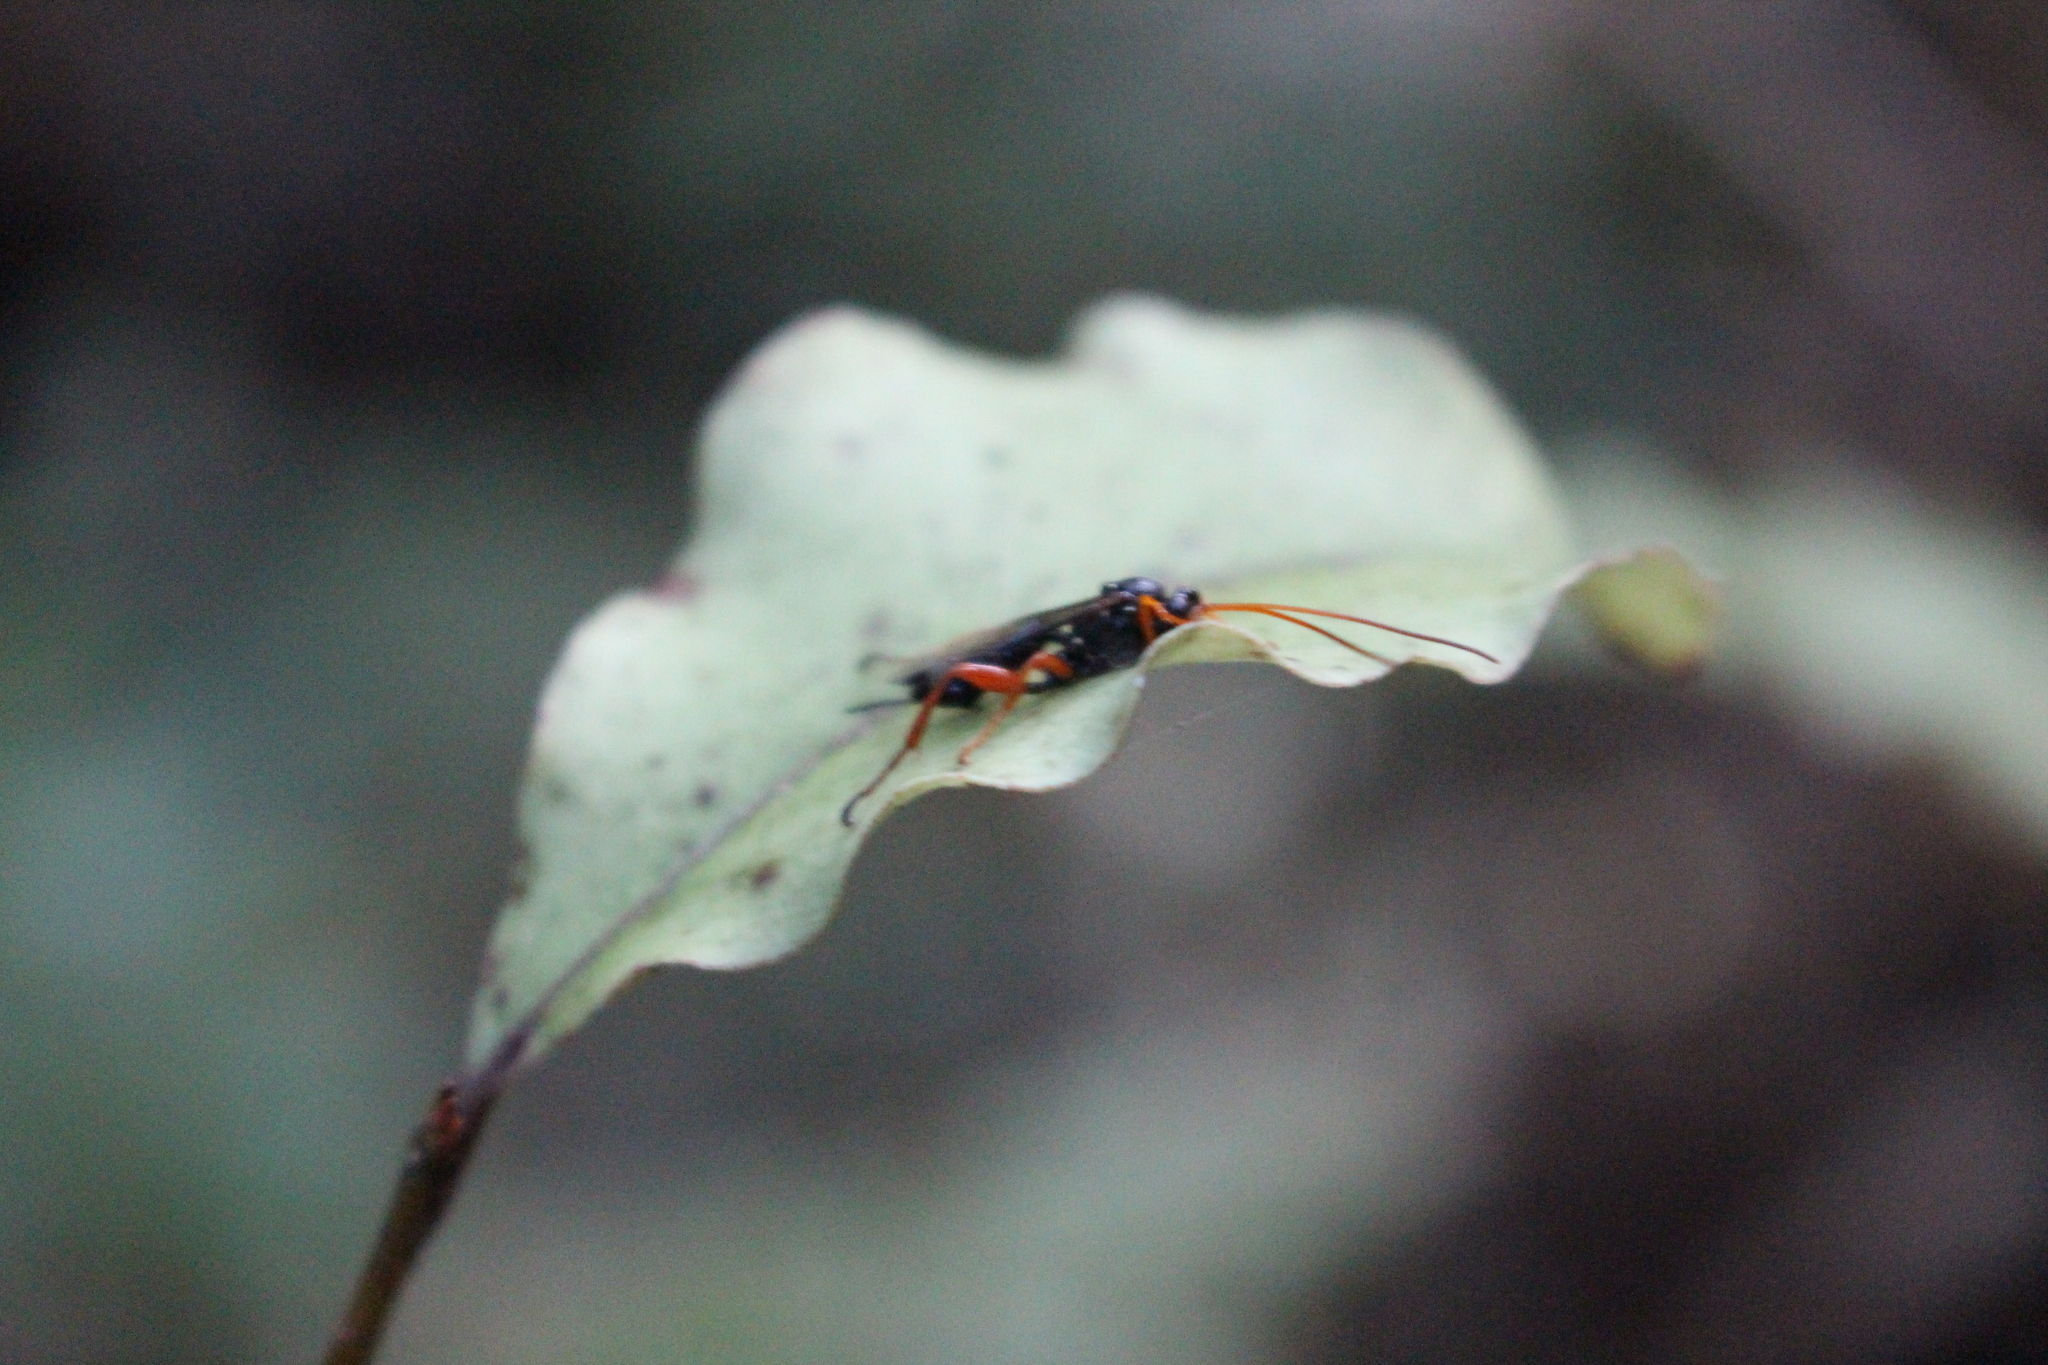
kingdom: Animalia
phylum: Arthropoda
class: Insecta
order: Hymenoptera
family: Ichneumonidae
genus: Echthromorpha
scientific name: Echthromorpha intricatoria
